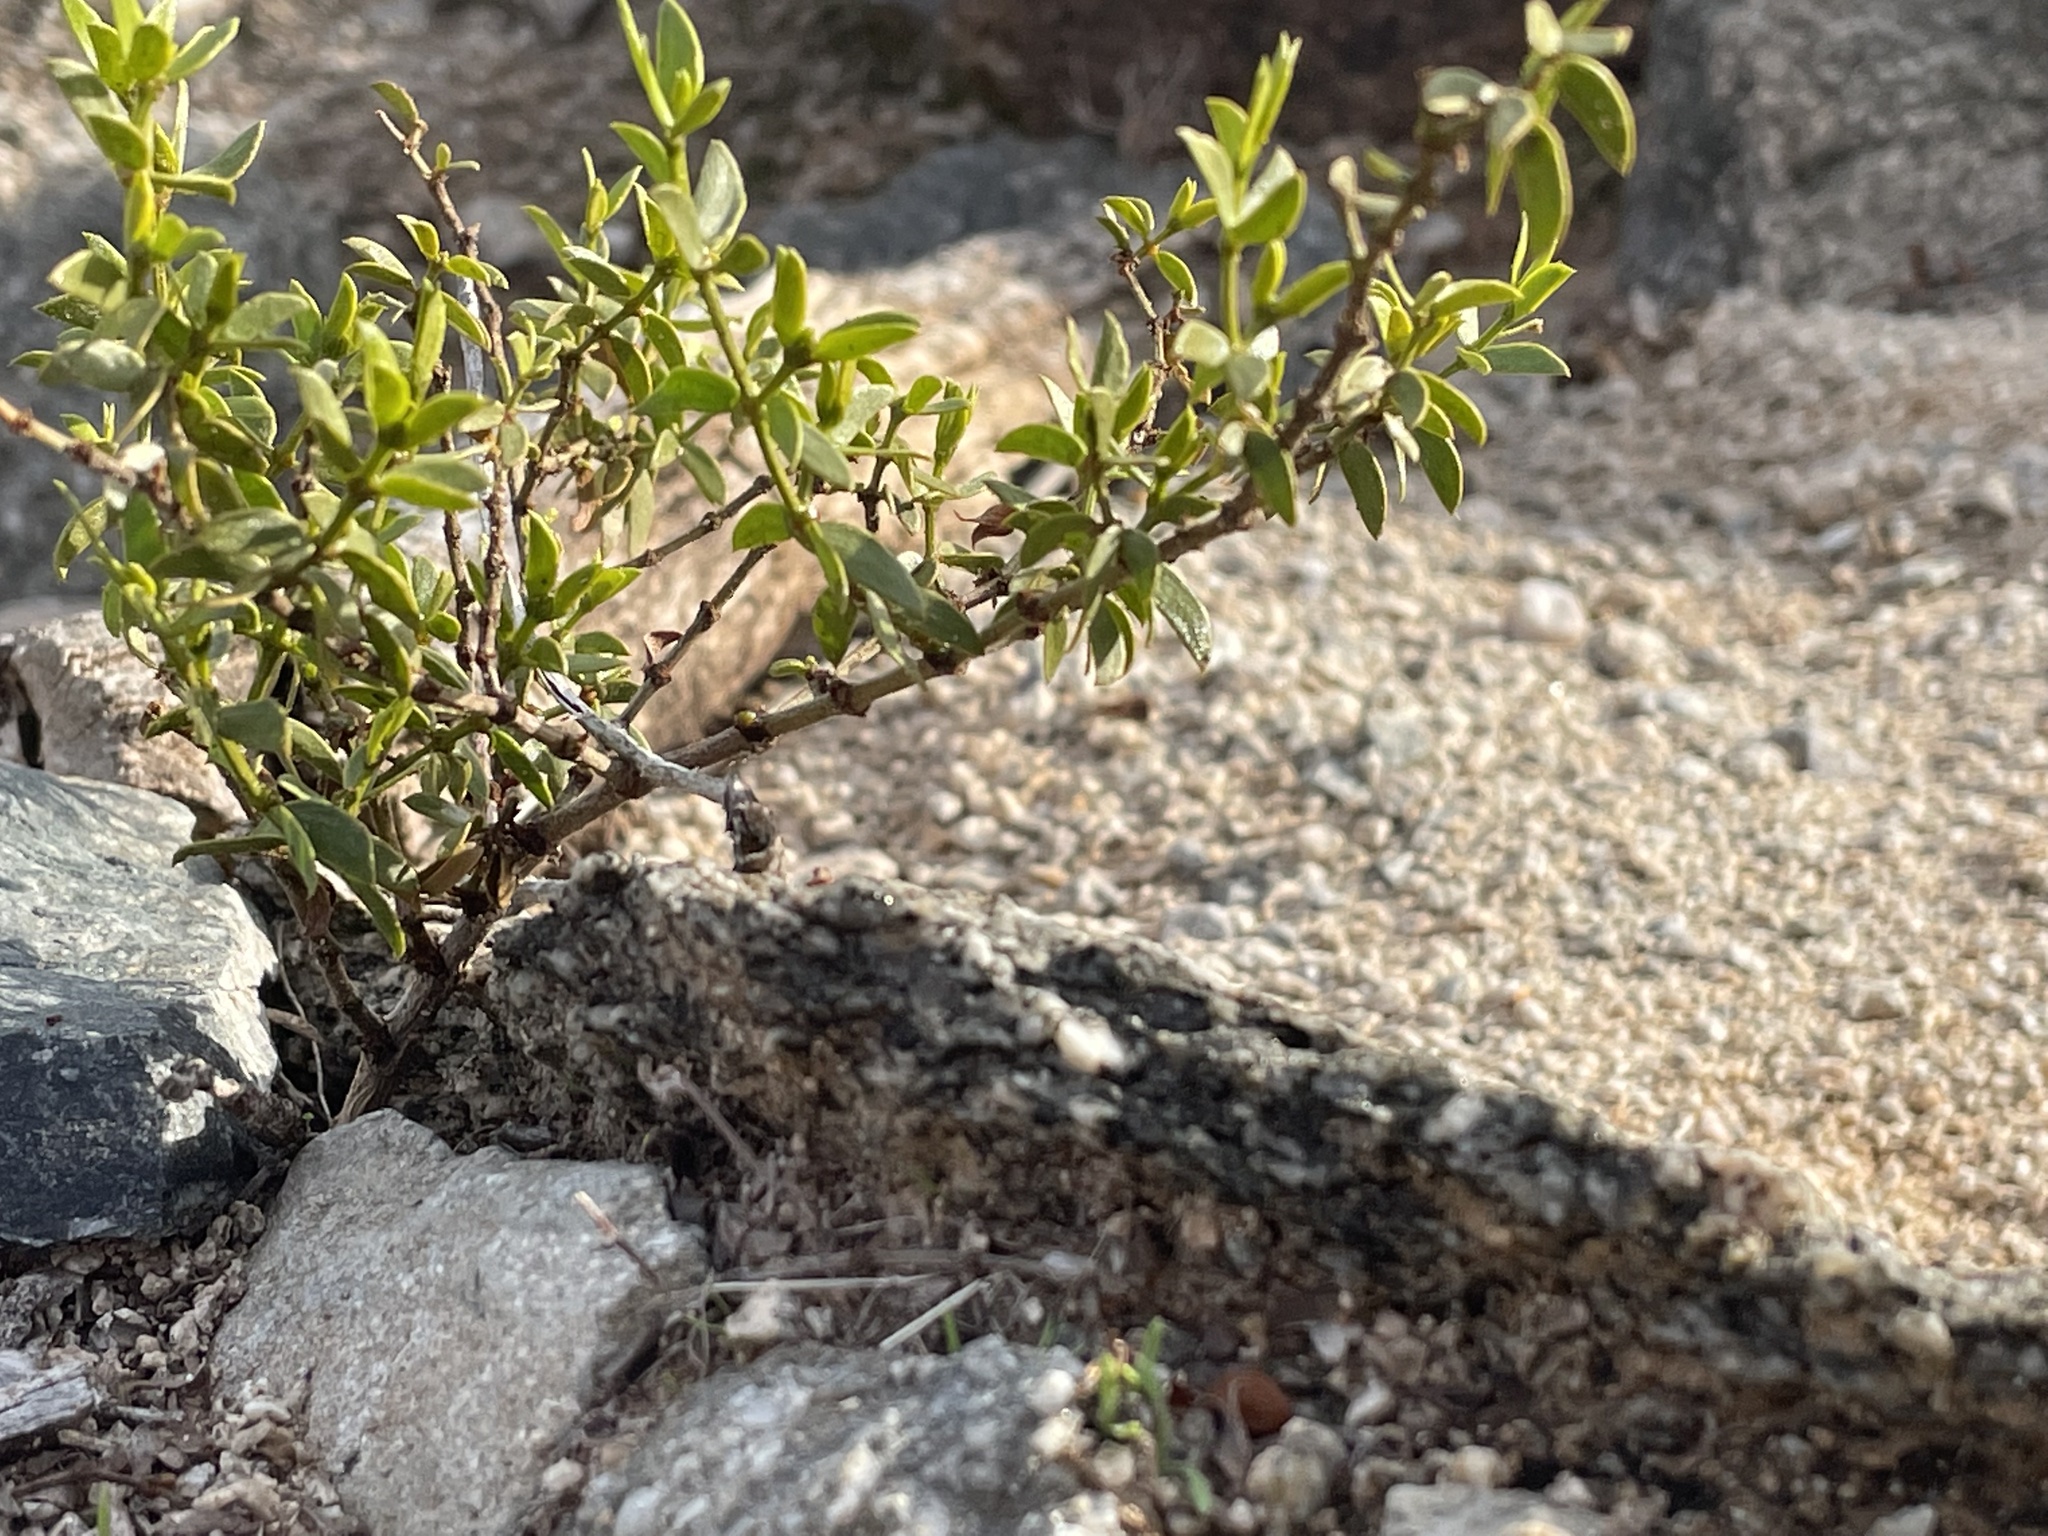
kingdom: Plantae
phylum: Tracheophyta
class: Magnoliopsida
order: Zygophyllales
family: Zygophyllaceae
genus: Larrea
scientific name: Larrea tridentata
